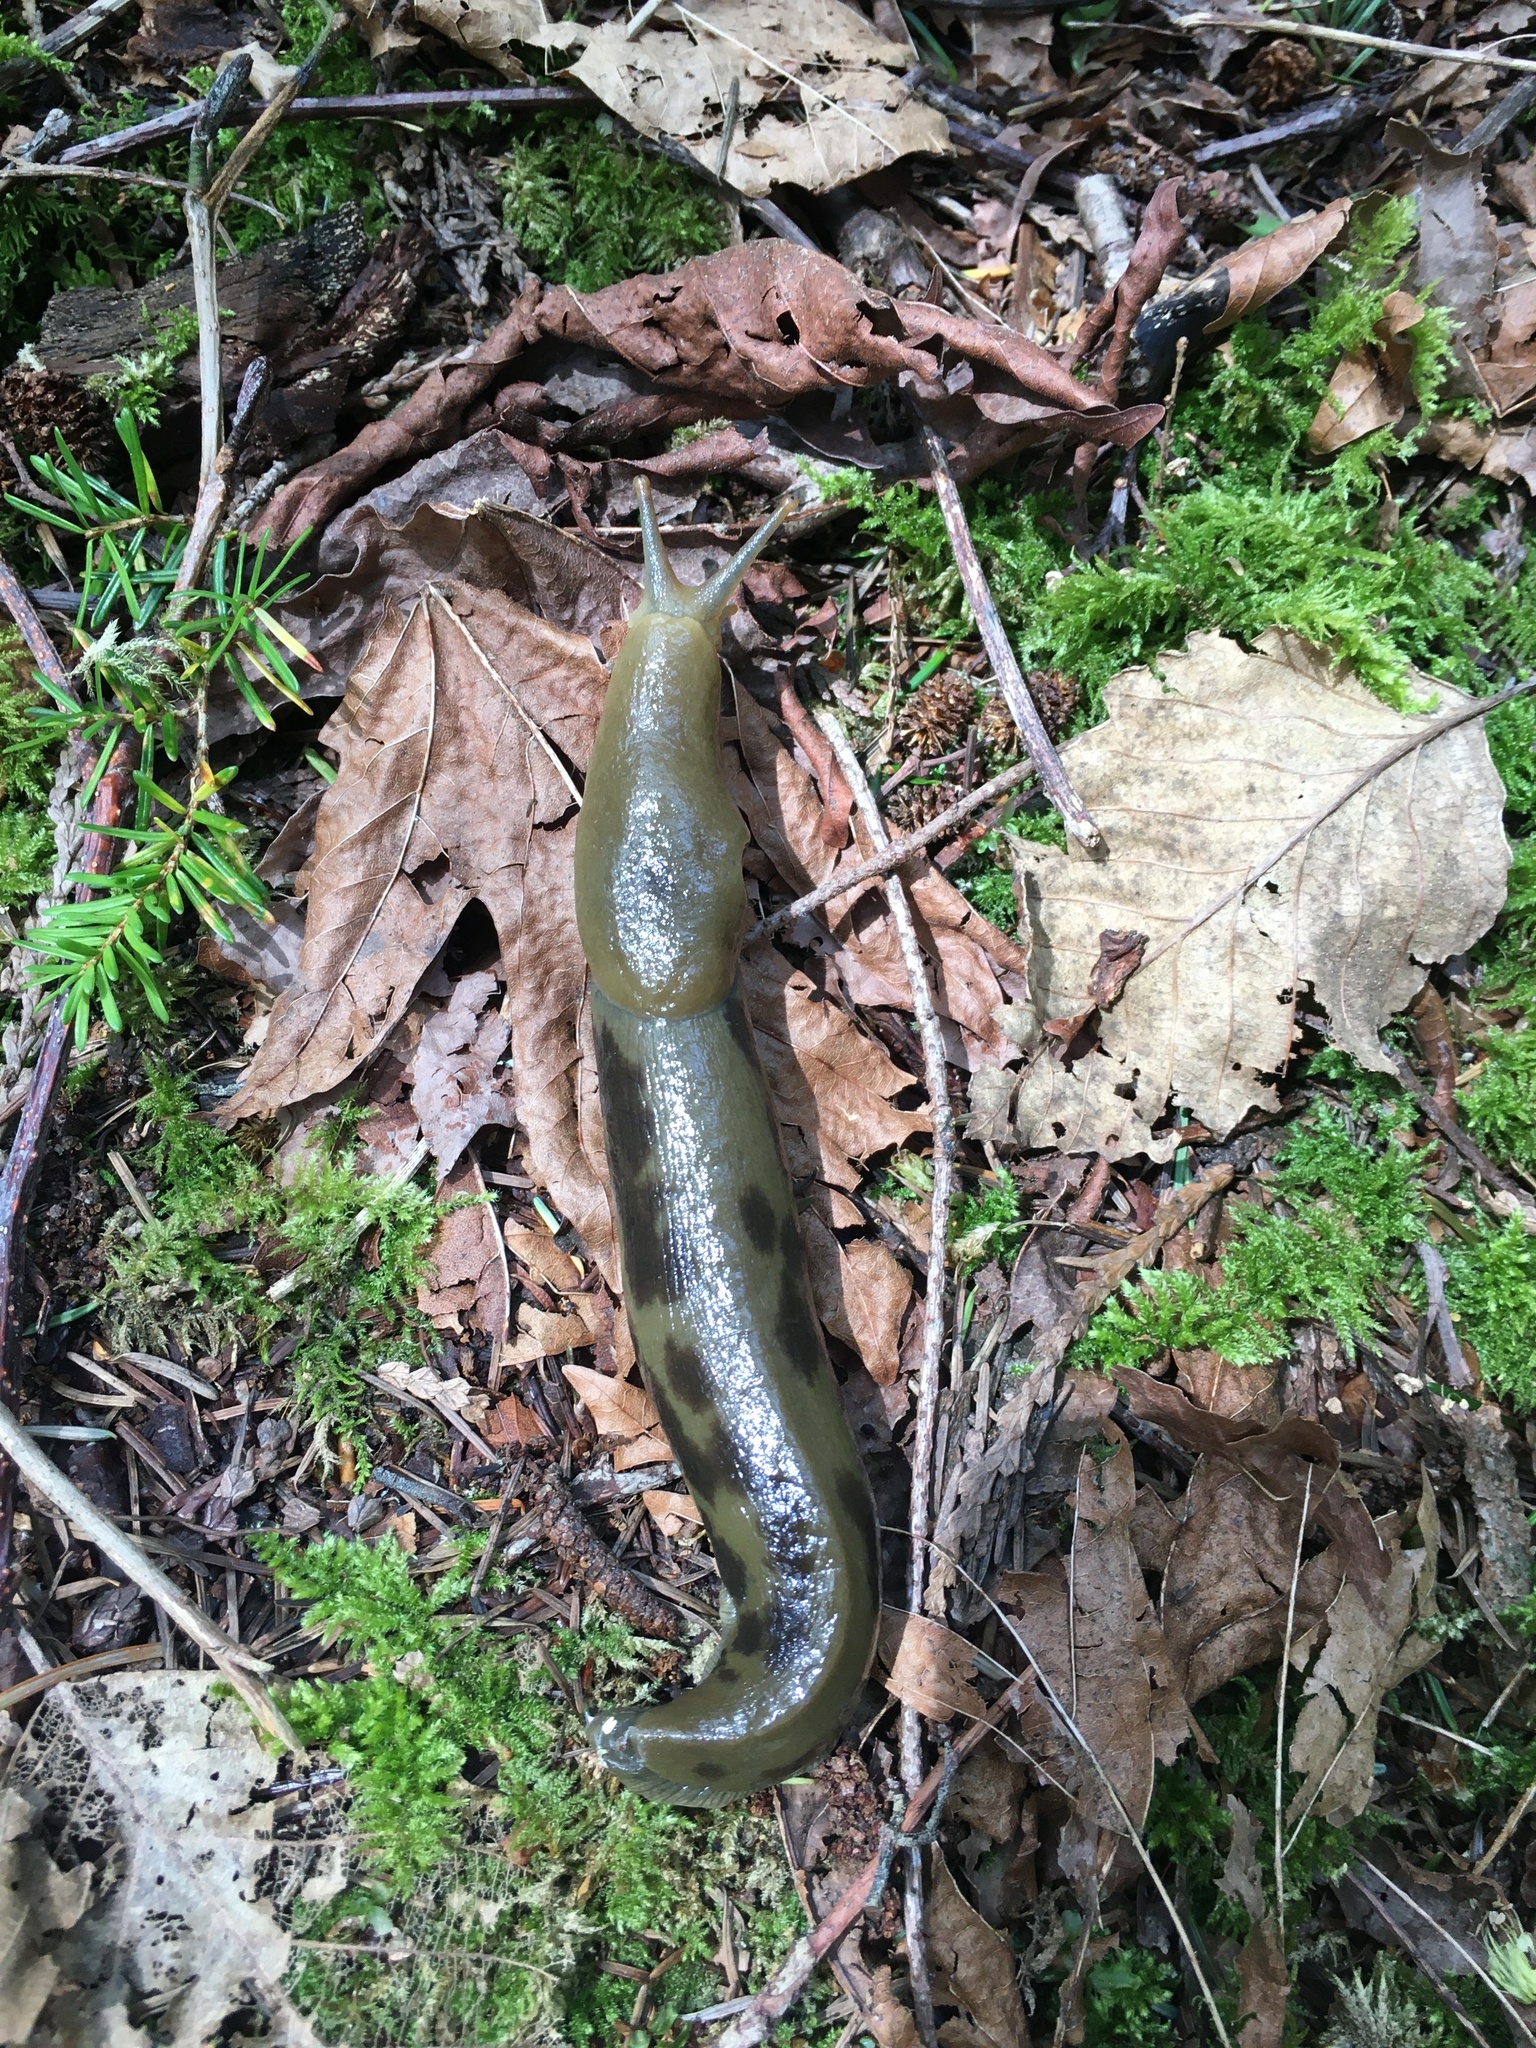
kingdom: Animalia
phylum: Mollusca
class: Gastropoda
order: Stylommatophora
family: Ariolimacidae
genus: Ariolimax
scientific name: Ariolimax columbianus
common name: Pacific banana slug
